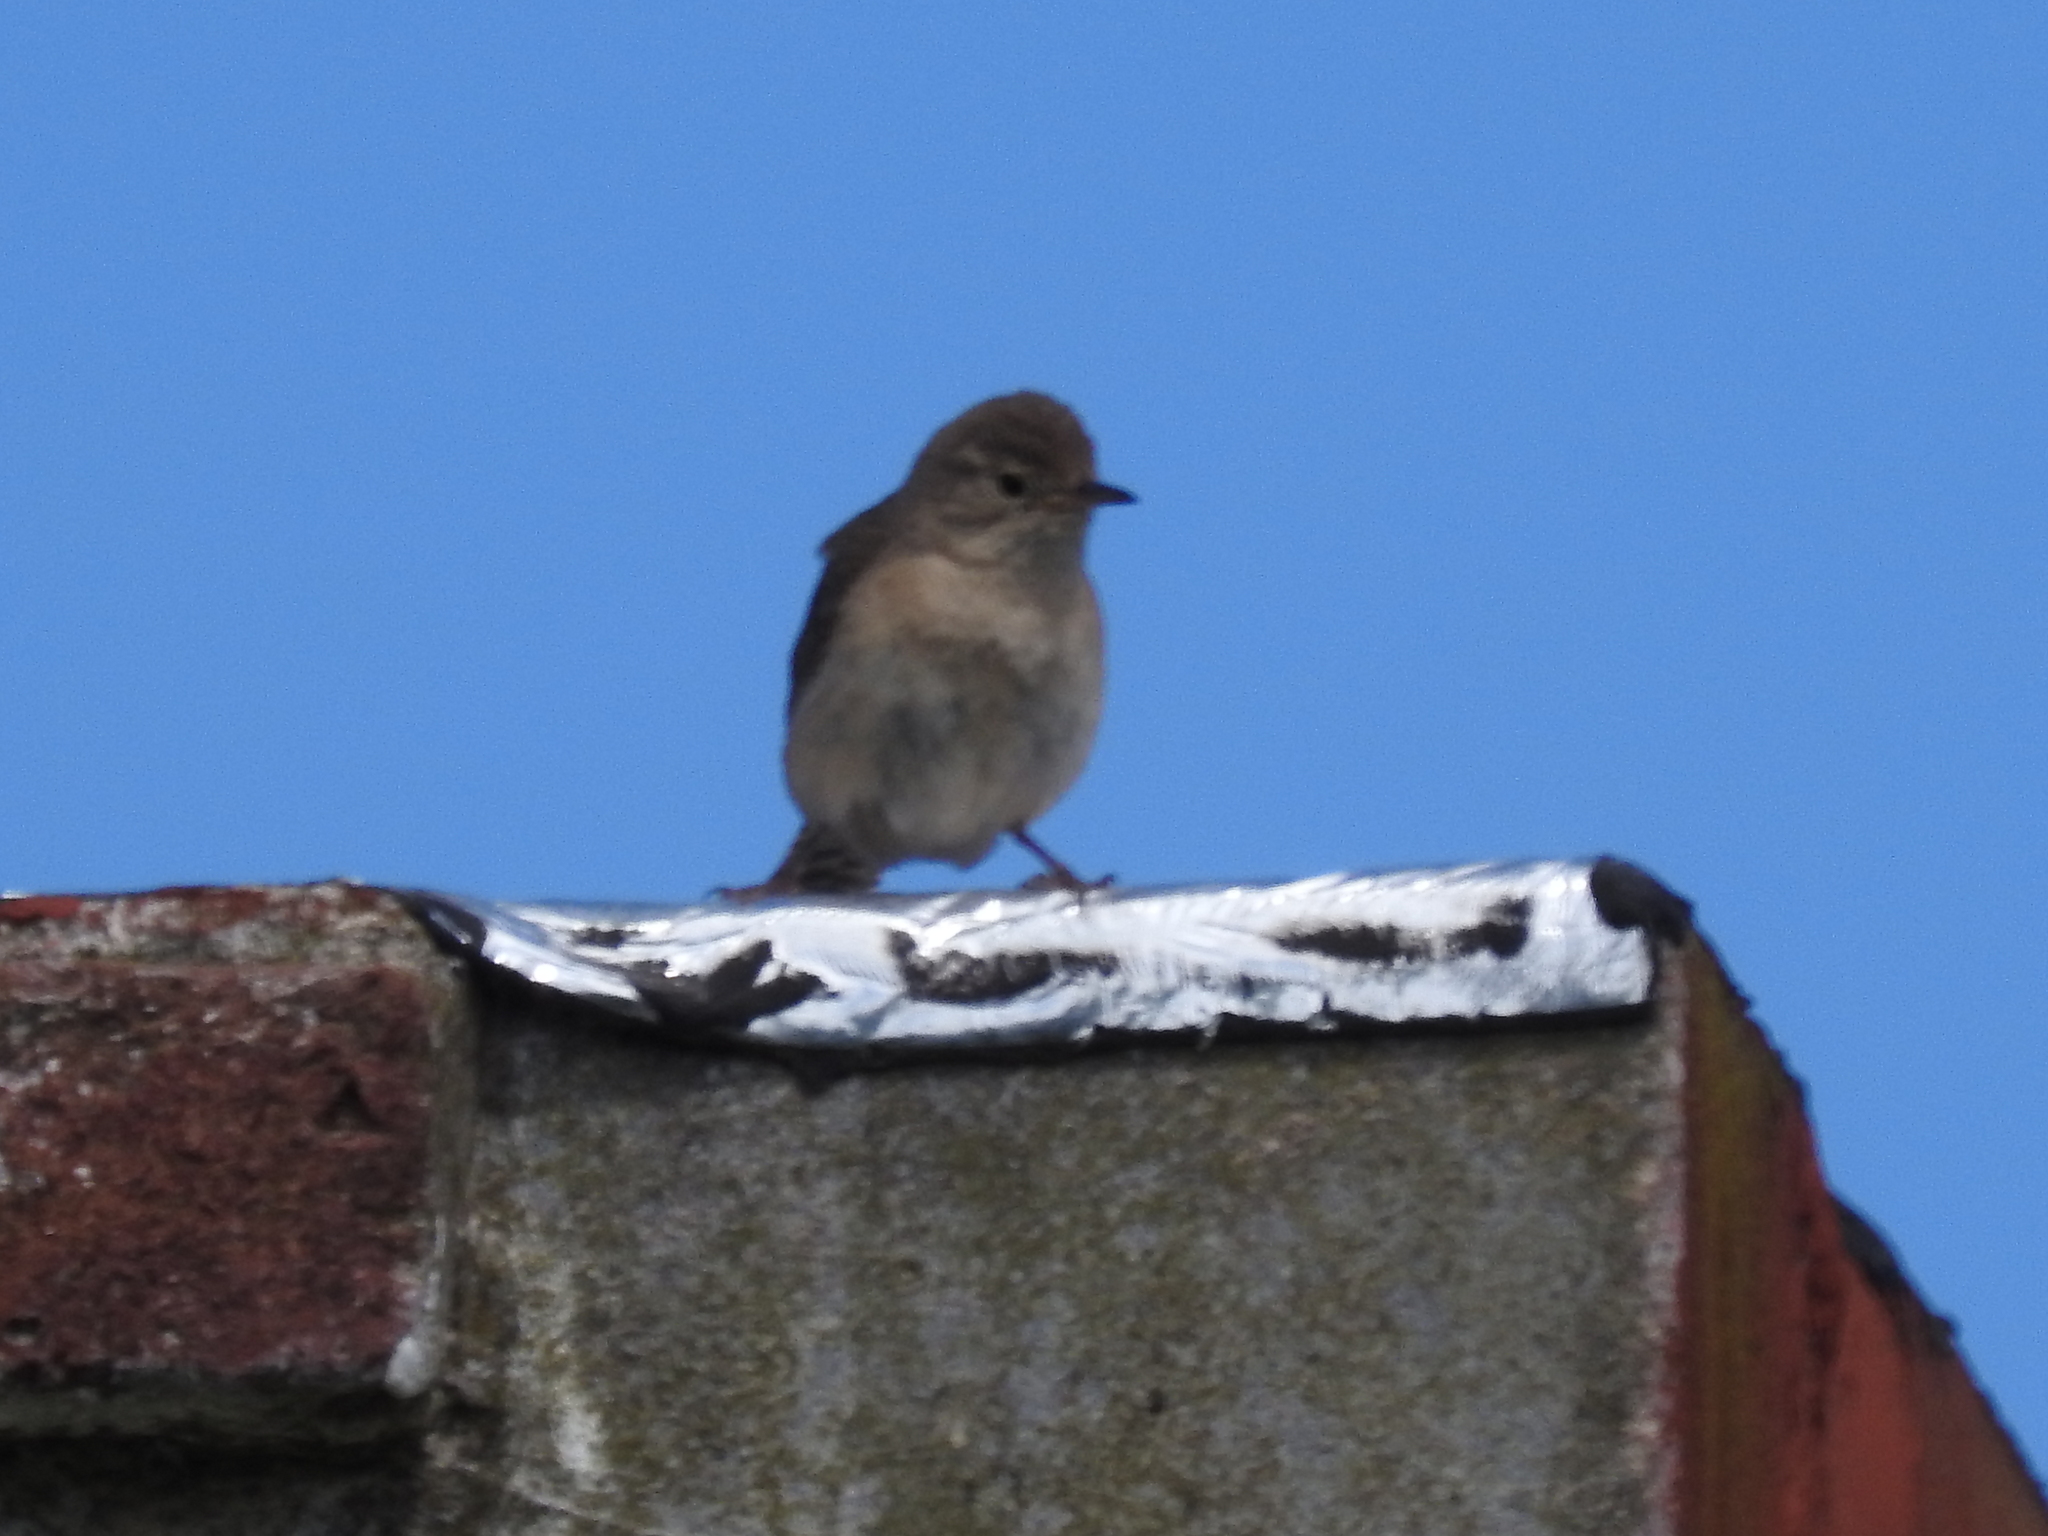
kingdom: Animalia
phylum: Chordata
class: Aves
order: Passeriformes
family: Troglodytidae
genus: Troglodytes
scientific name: Troglodytes aedon
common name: House wren
